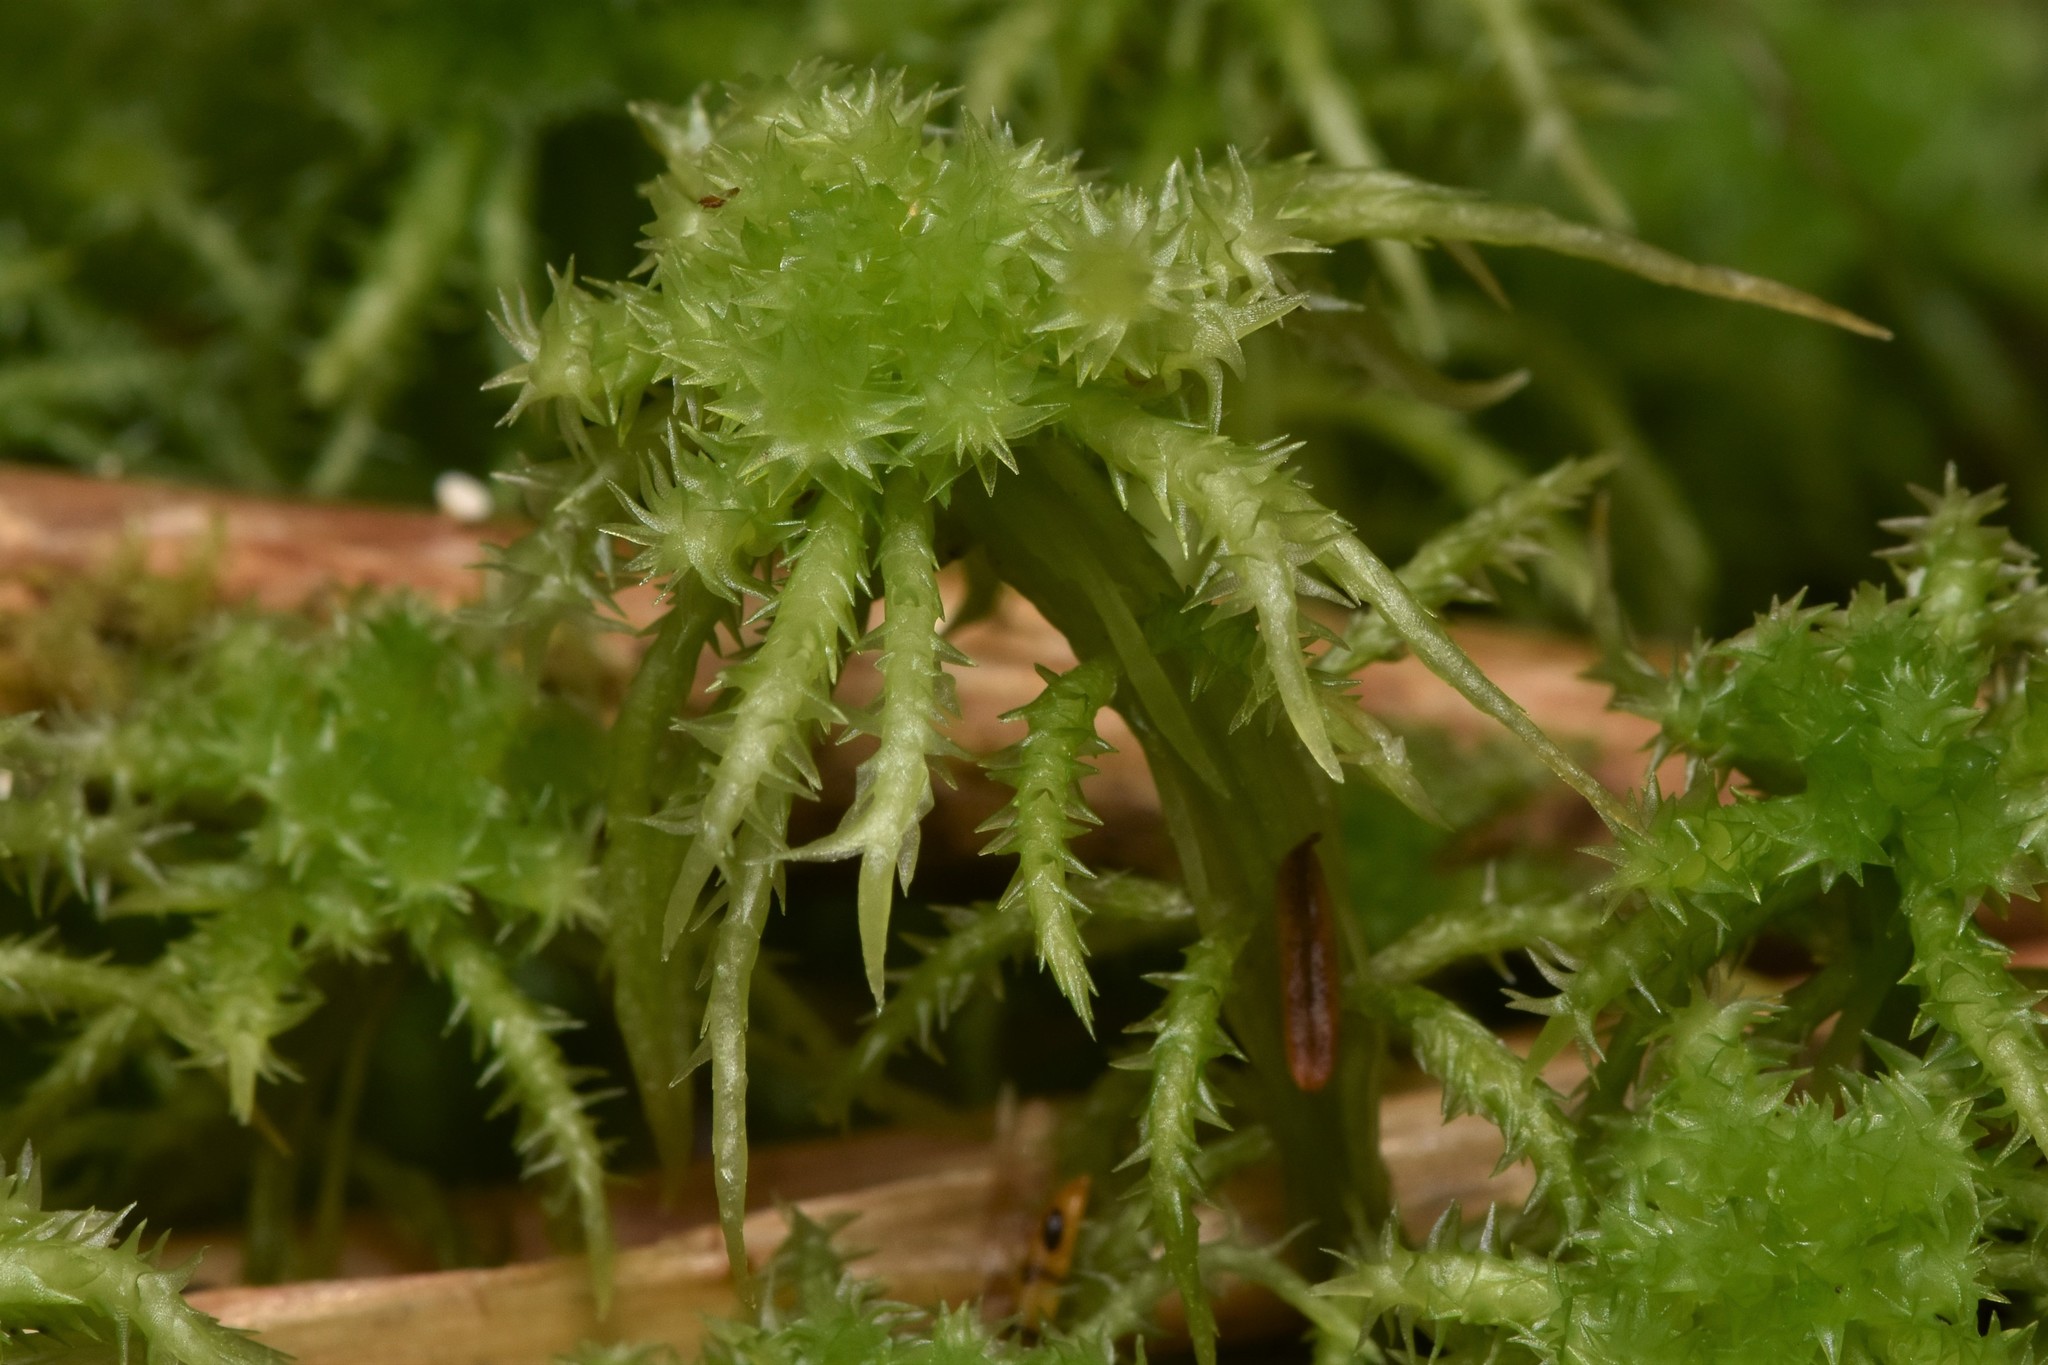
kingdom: Plantae
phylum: Bryophyta
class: Sphagnopsida
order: Sphagnales
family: Sphagnaceae
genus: Sphagnum
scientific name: Sphagnum squarrosum
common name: Shaggy peat moss
